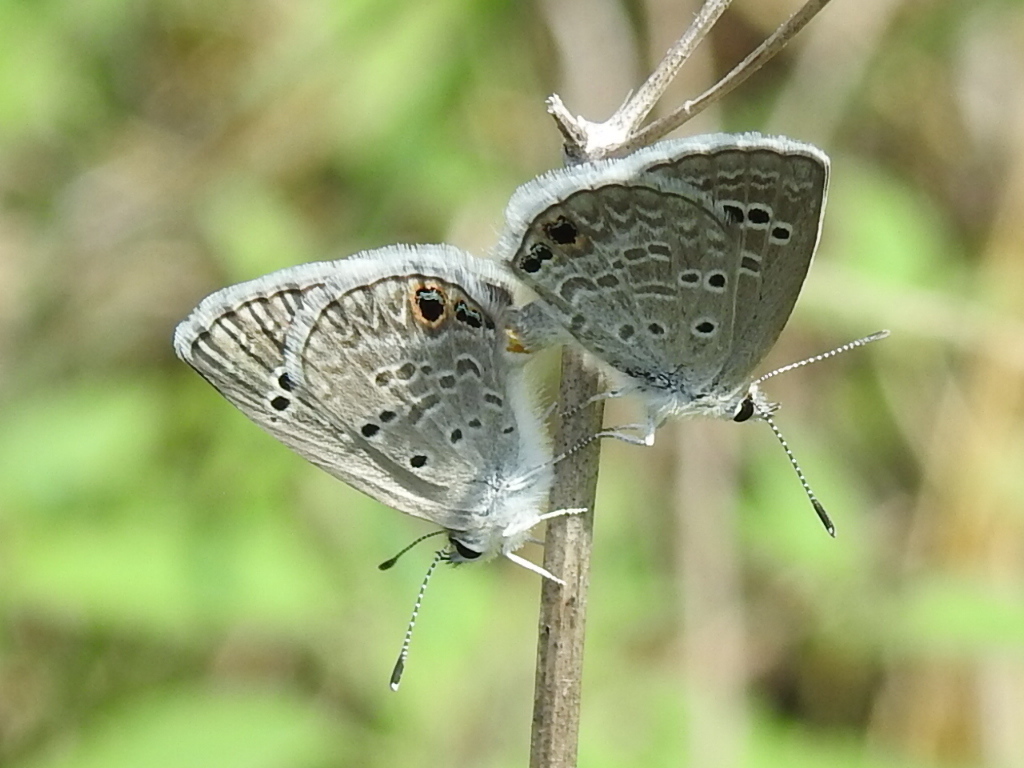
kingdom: Animalia
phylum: Arthropoda
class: Insecta
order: Lepidoptera
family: Lycaenidae
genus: Echinargus
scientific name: Echinargus isola
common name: Reakirt's blue
